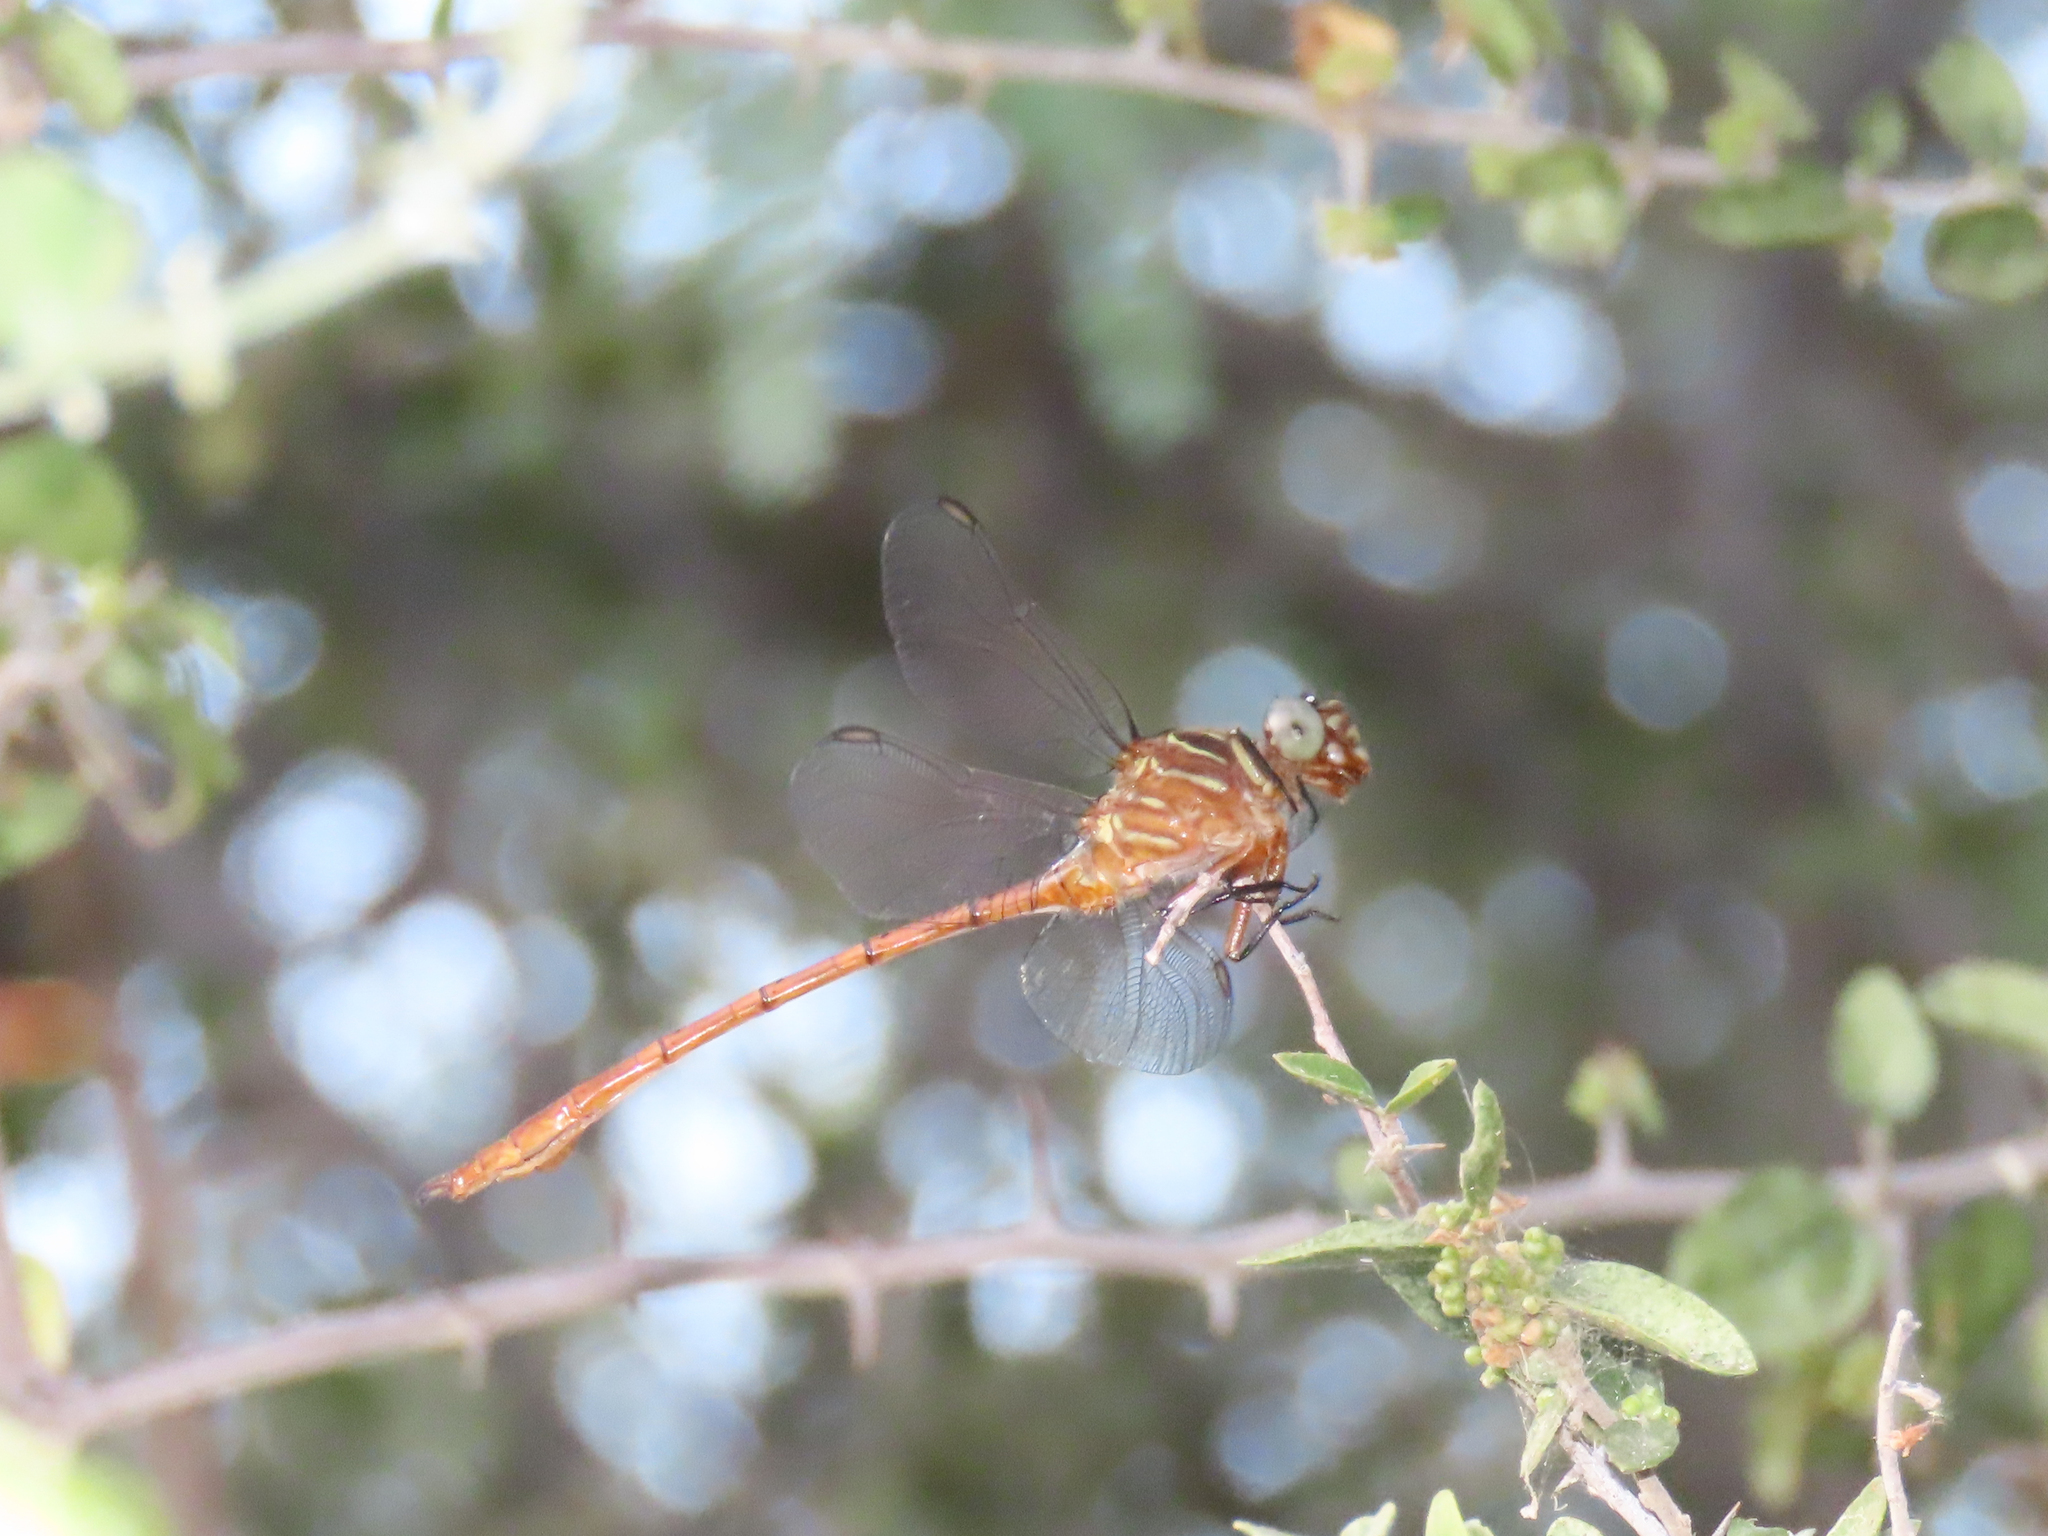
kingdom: Animalia
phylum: Arthropoda
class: Insecta
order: Odonata
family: Gomphidae
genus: Aphylla
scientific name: Aphylla protracta
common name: Narrow-striped forceptail
